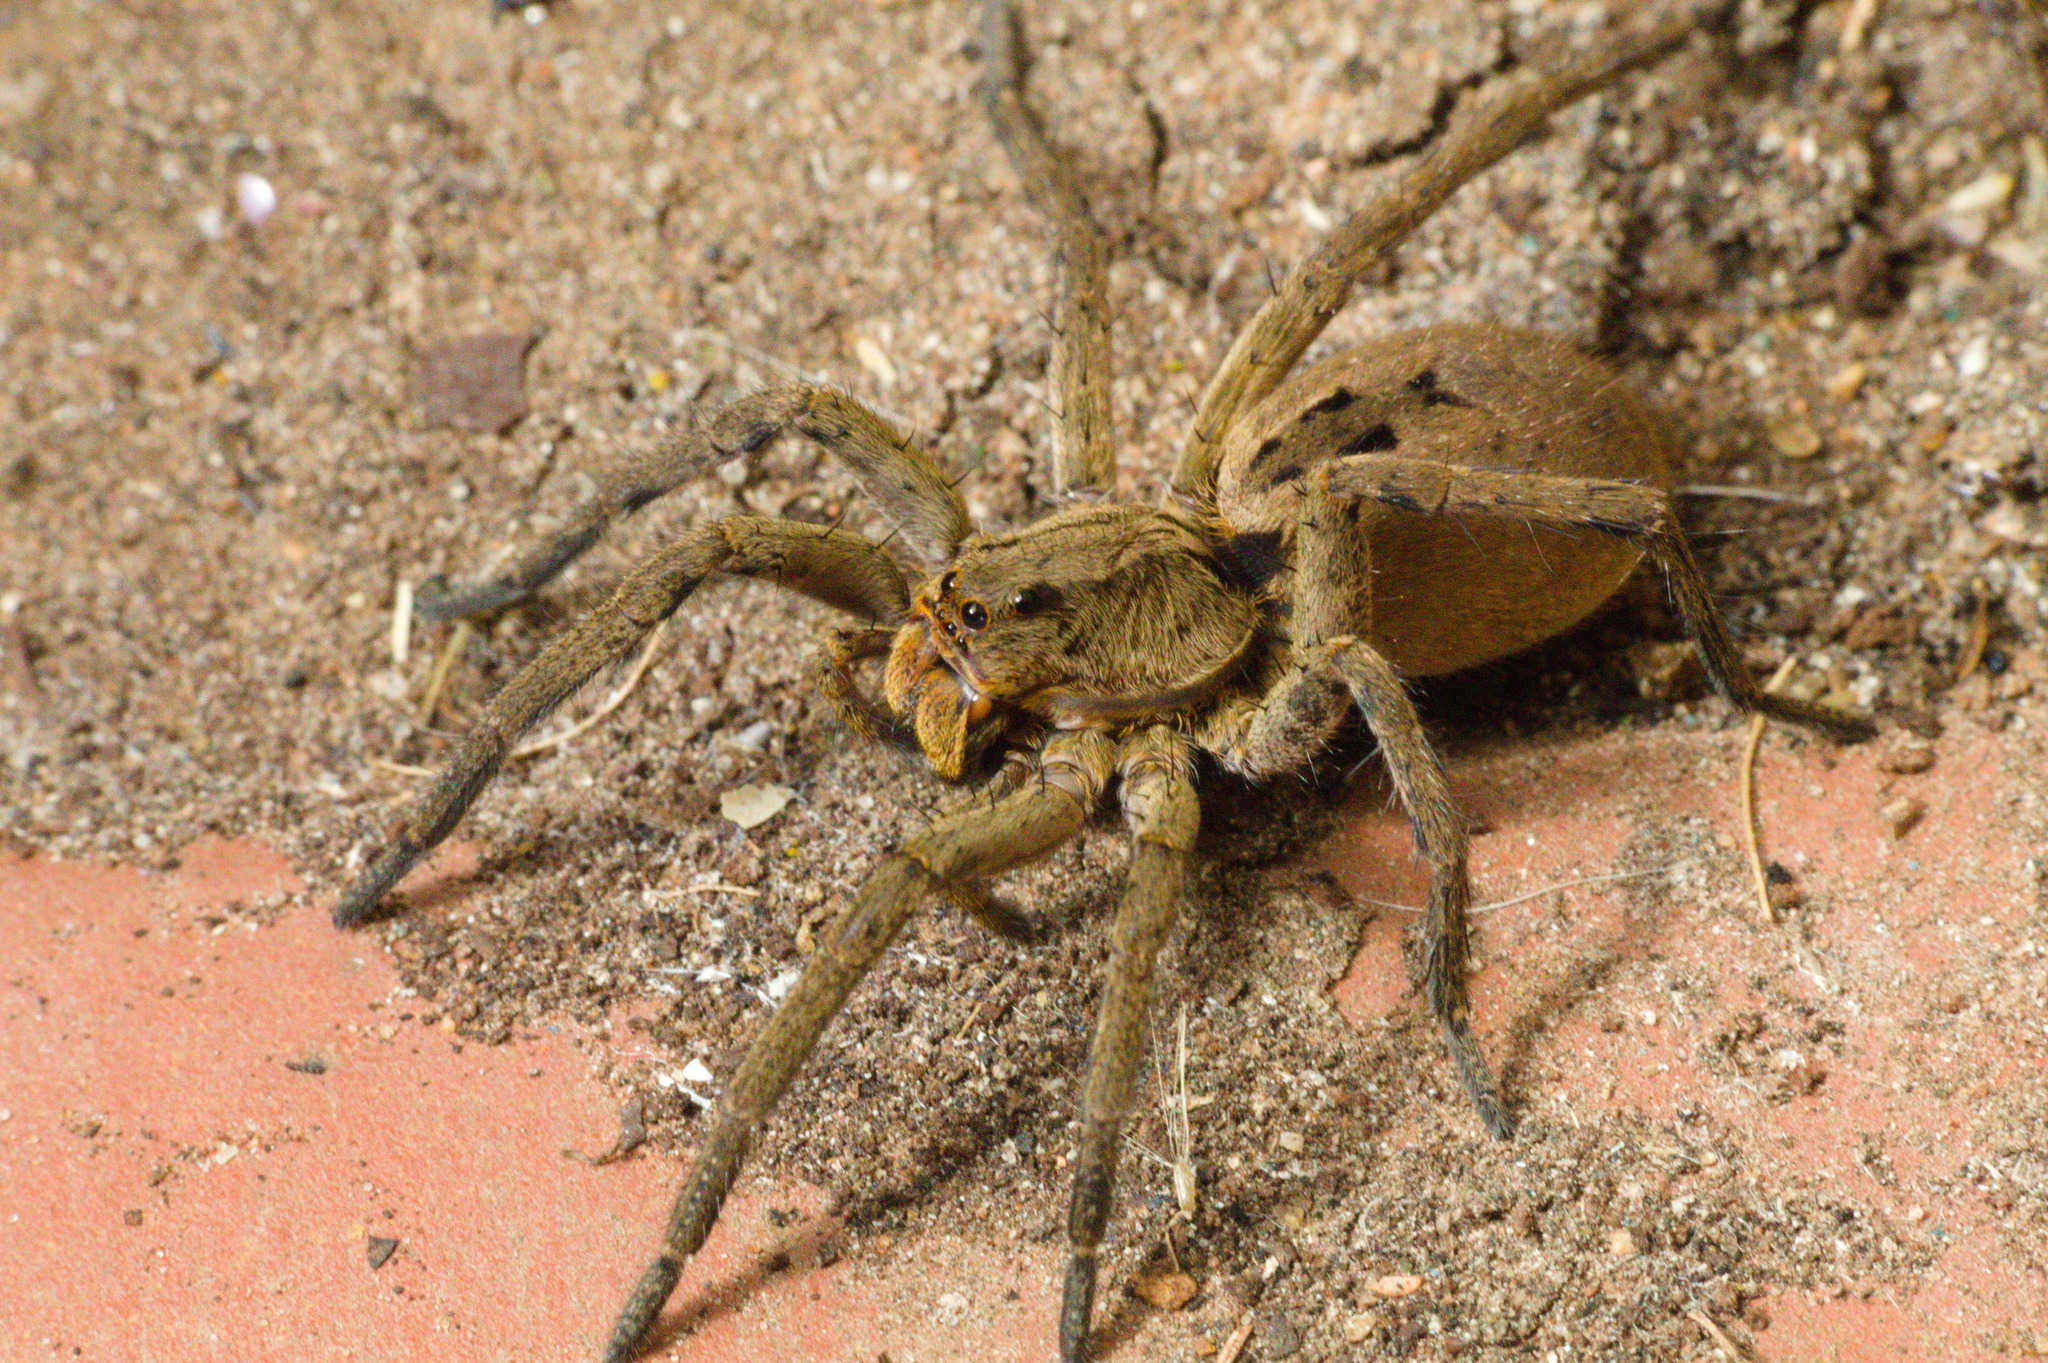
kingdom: Animalia
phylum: Arthropoda
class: Arachnida
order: Araneae
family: Lycosidae
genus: Lycosa
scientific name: Lycosa erythrognatha
